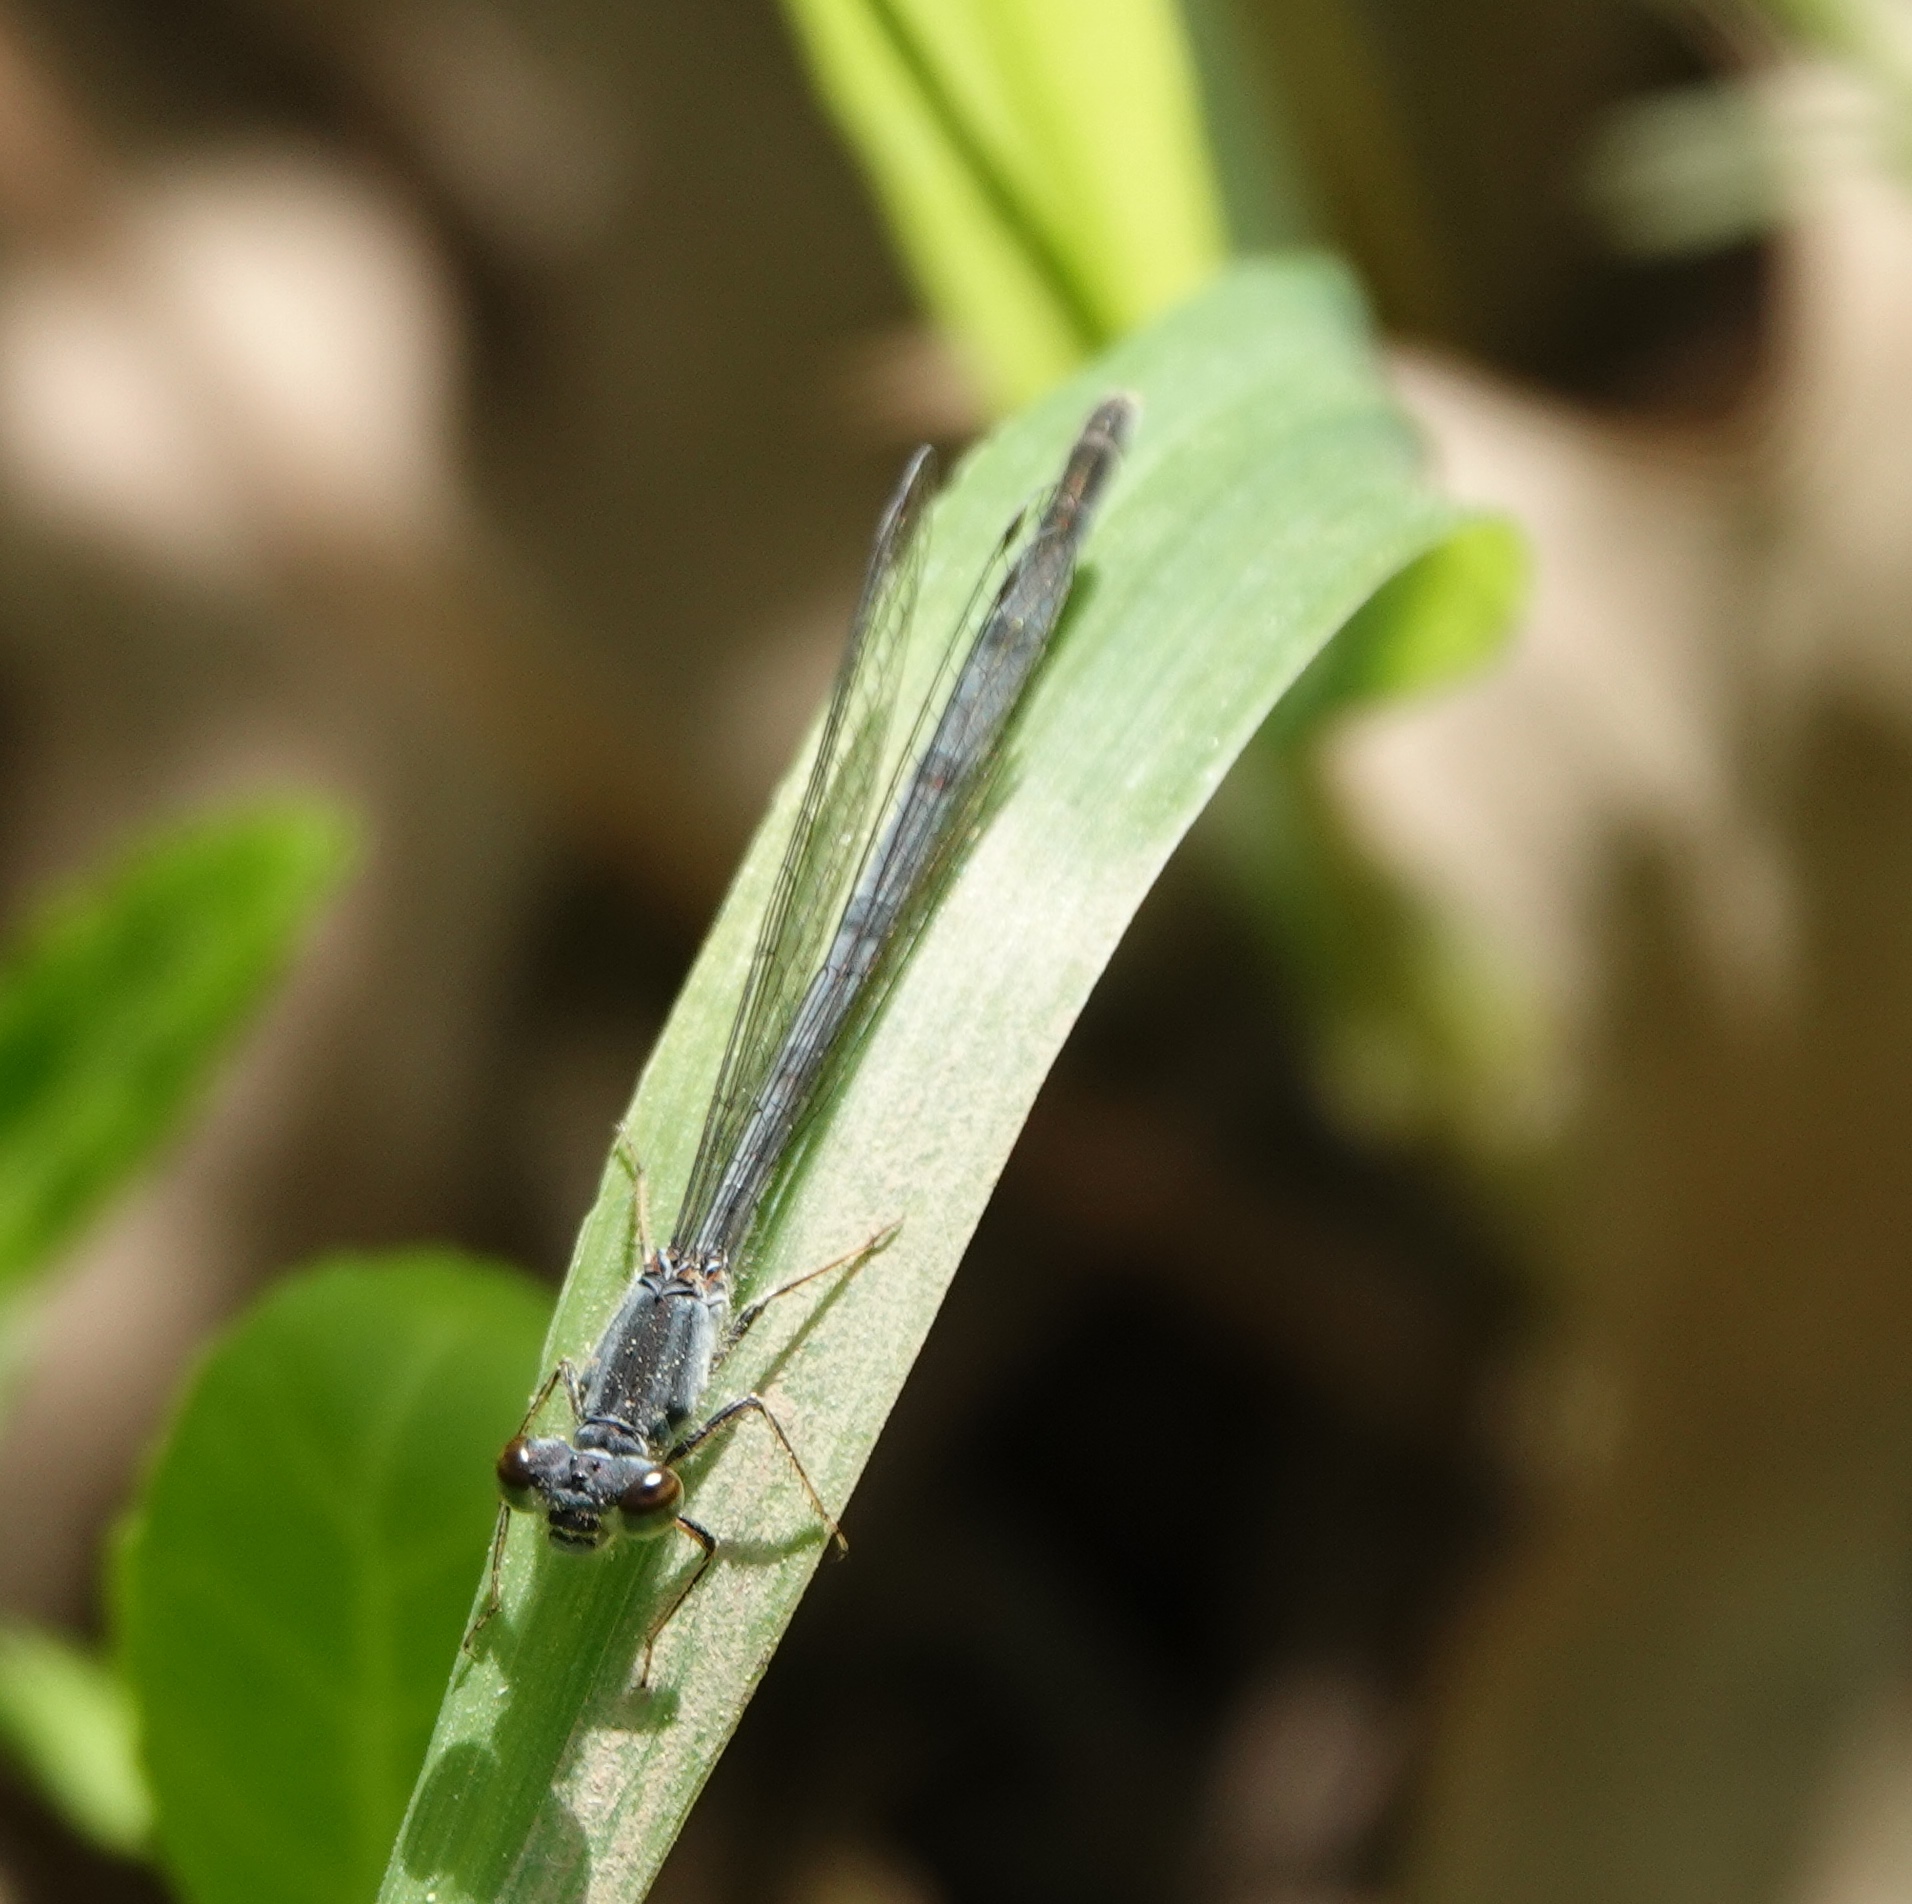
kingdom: Animalia
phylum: Arthropoda
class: Insecta
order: Odonata
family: Coenagrionidae
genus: Ischnura
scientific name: Ischnura verticalis
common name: Eastern forktail
